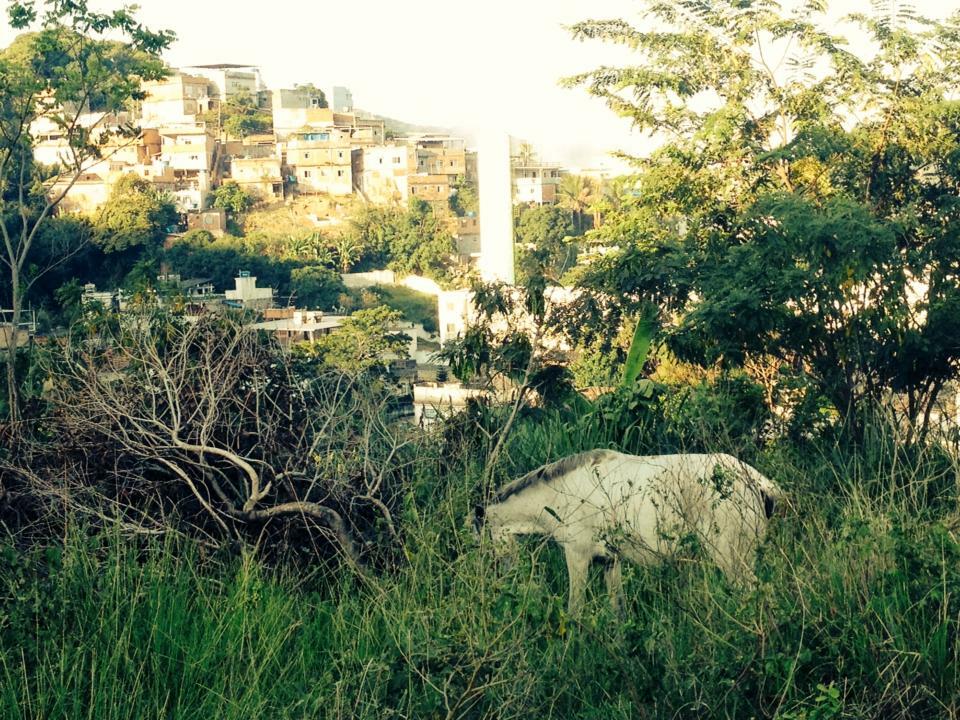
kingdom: Animalia
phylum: Chordata
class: Mammalia
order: Perissodactyla
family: Equidae
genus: Equus
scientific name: Equus caballus
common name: Horse
